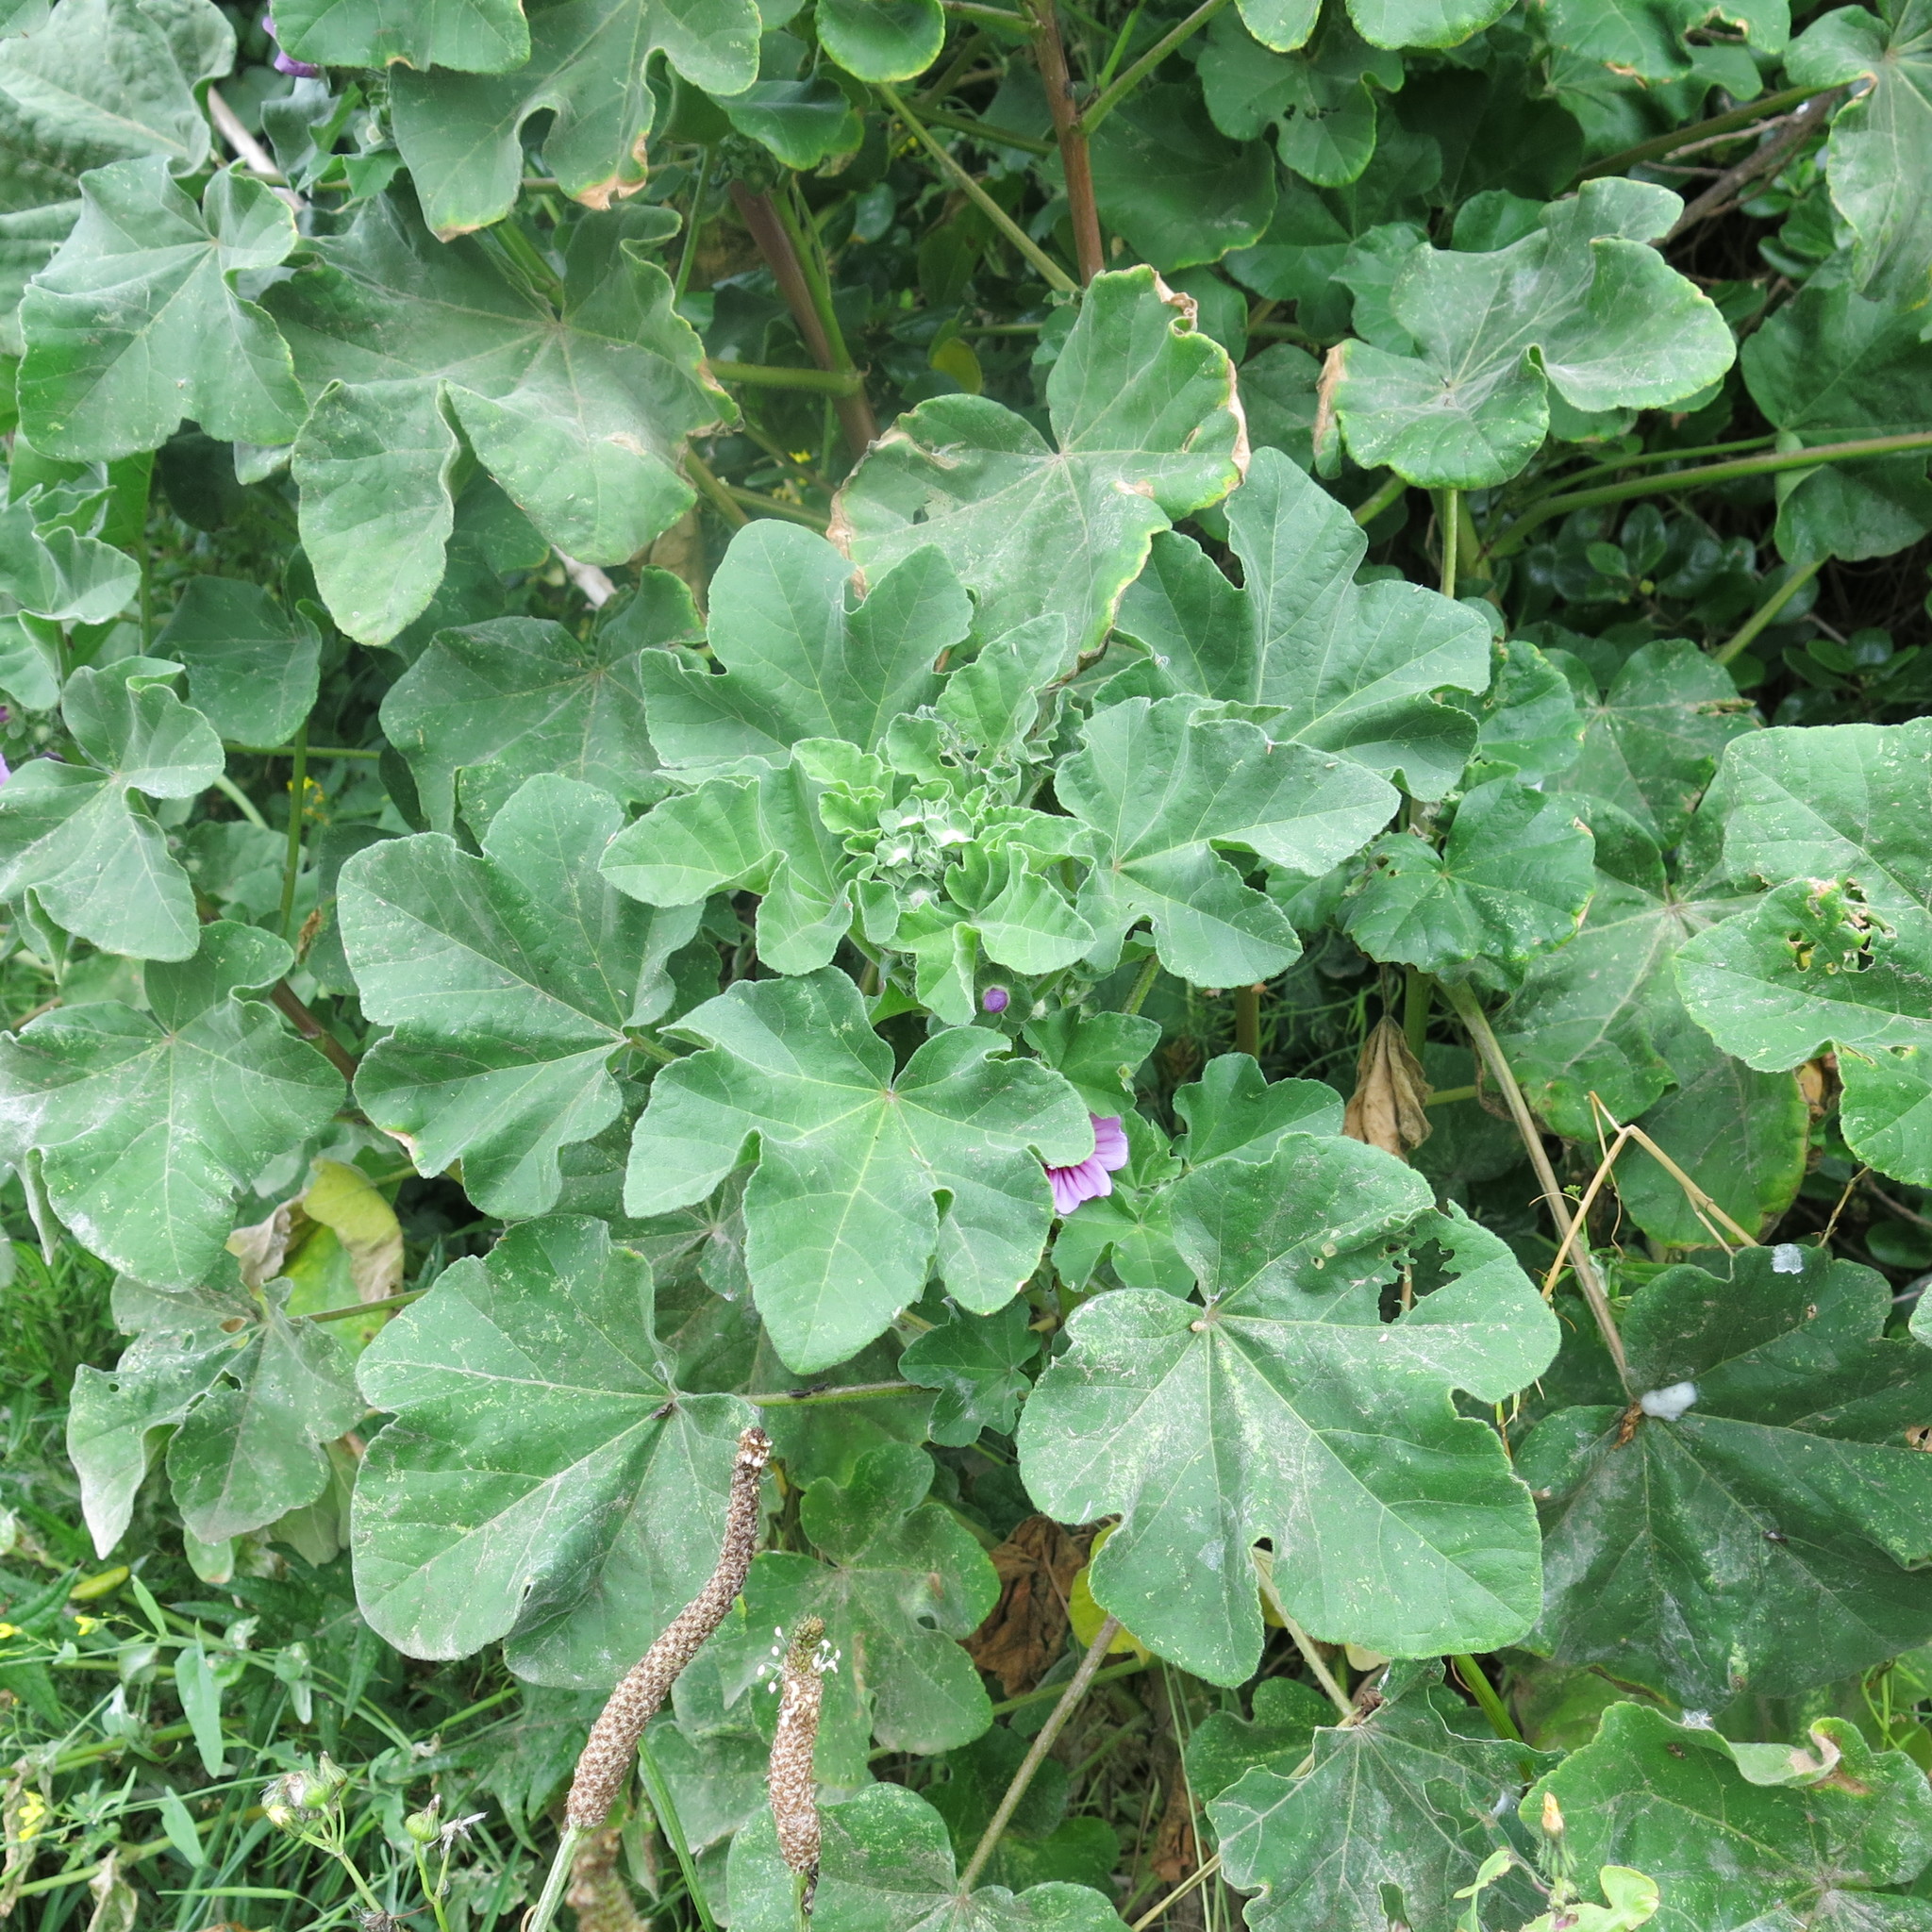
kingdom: Plantae
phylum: Tracheophyta
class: Magnoliopsida
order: Malvales
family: Malvaceae
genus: Malva
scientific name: Malva arborea
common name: Tree mallow
